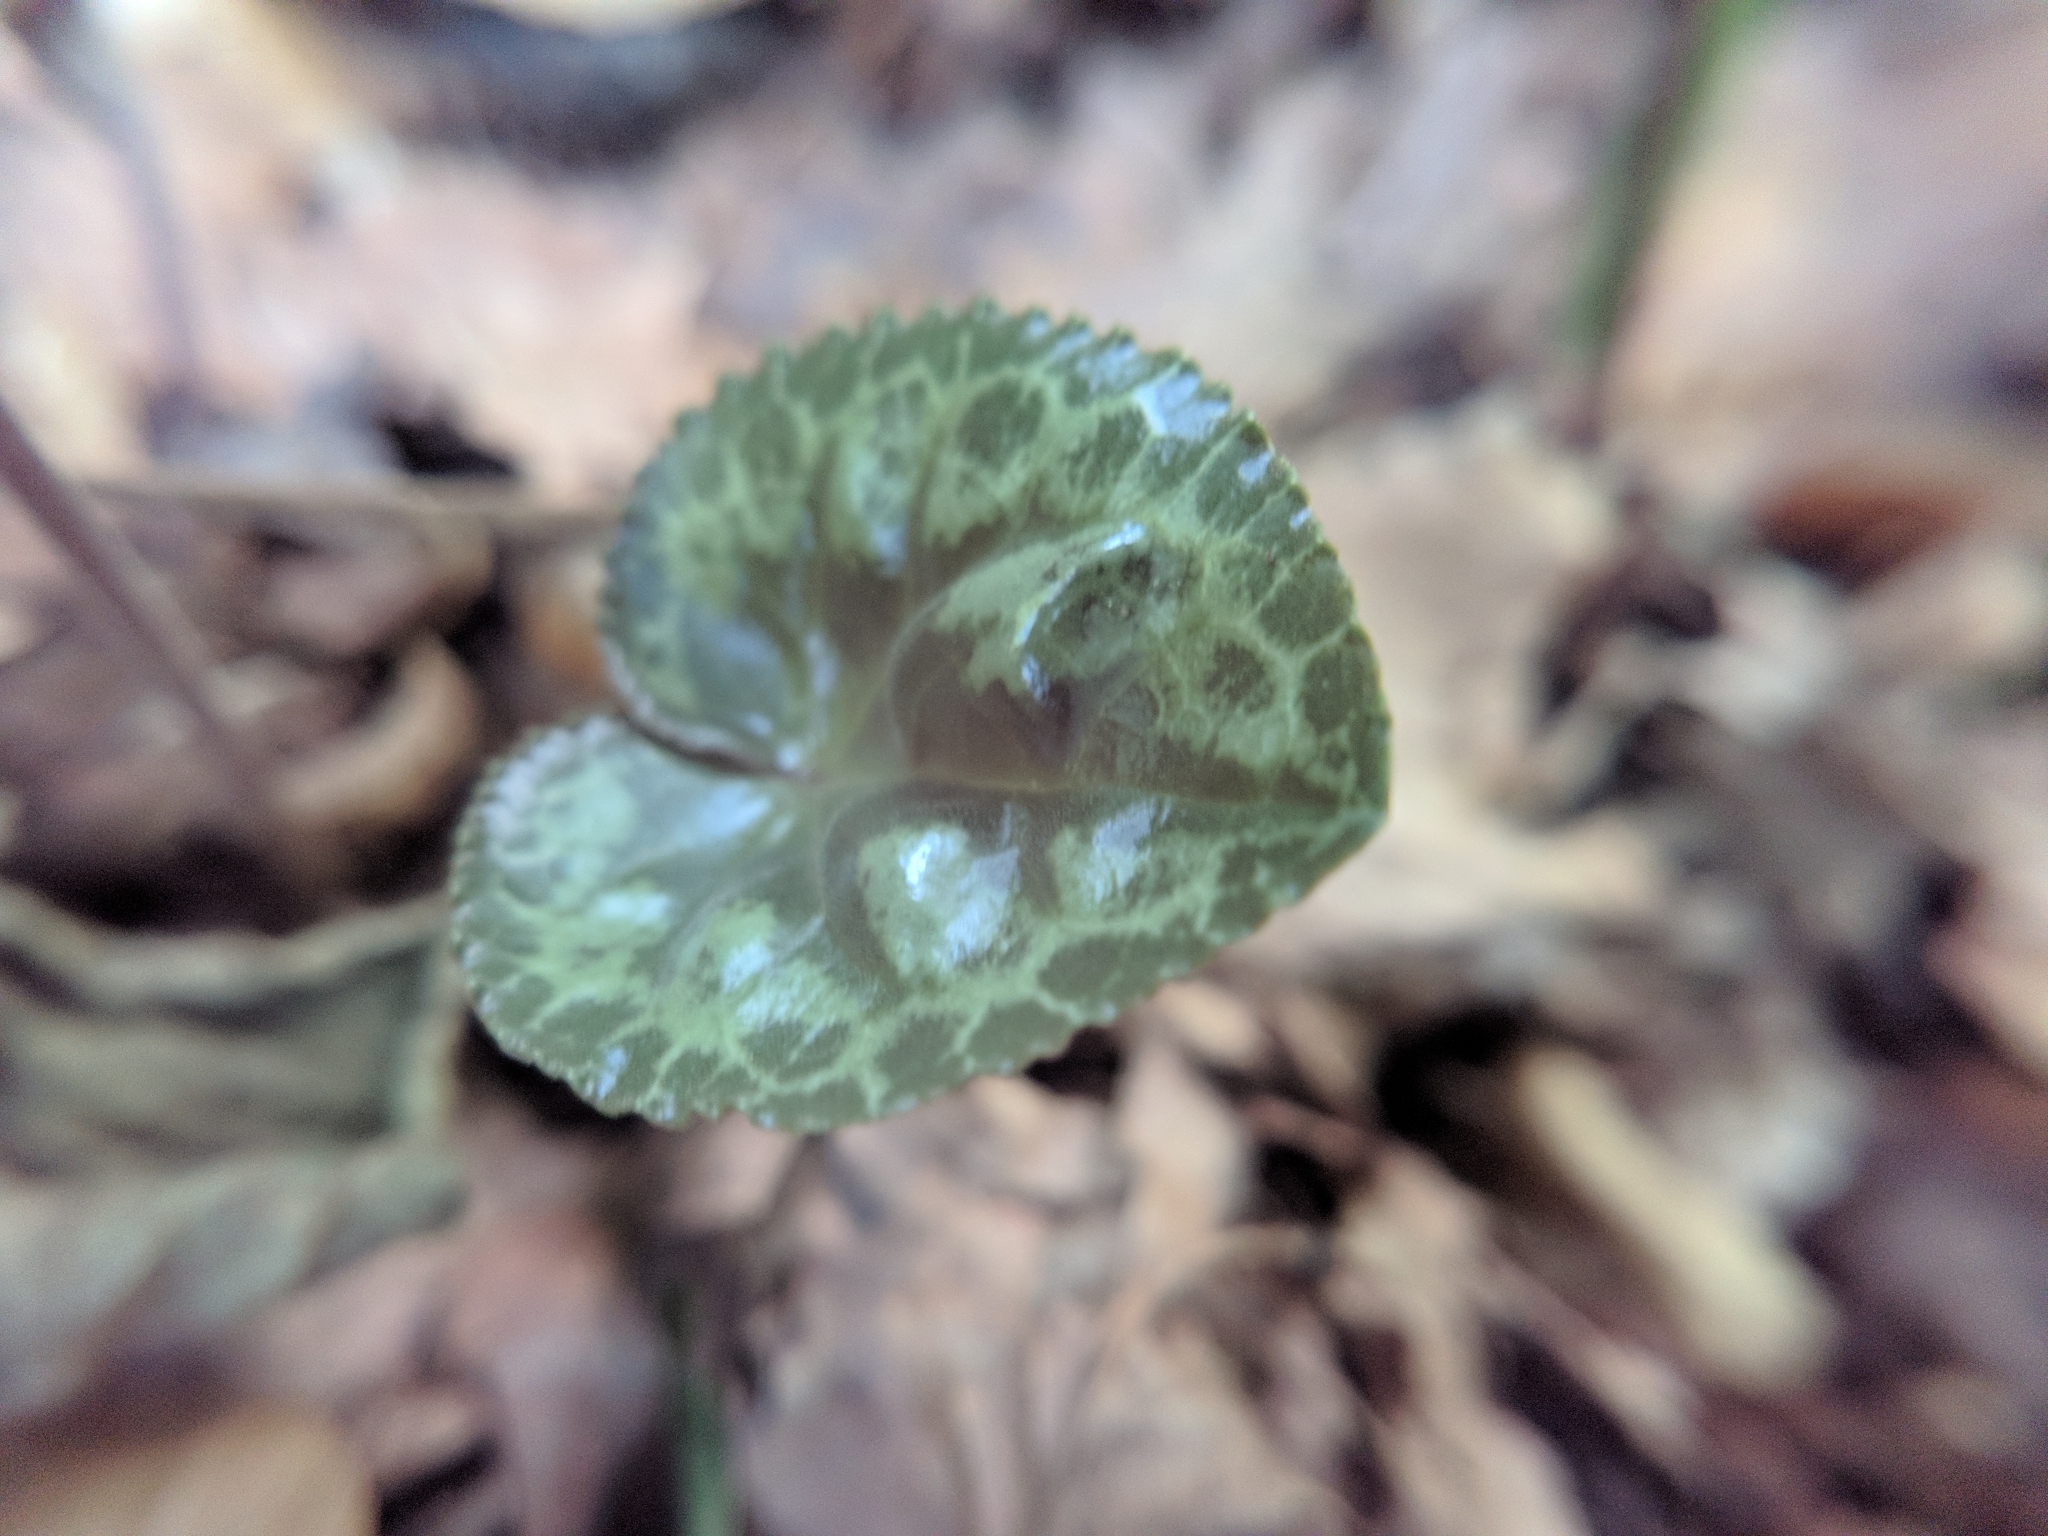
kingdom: Plantae
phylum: Tracheophyta
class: Magnoliopsida
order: Ericales
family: Primulaceae
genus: Cyclamen
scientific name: Cyclamen purpurascens
